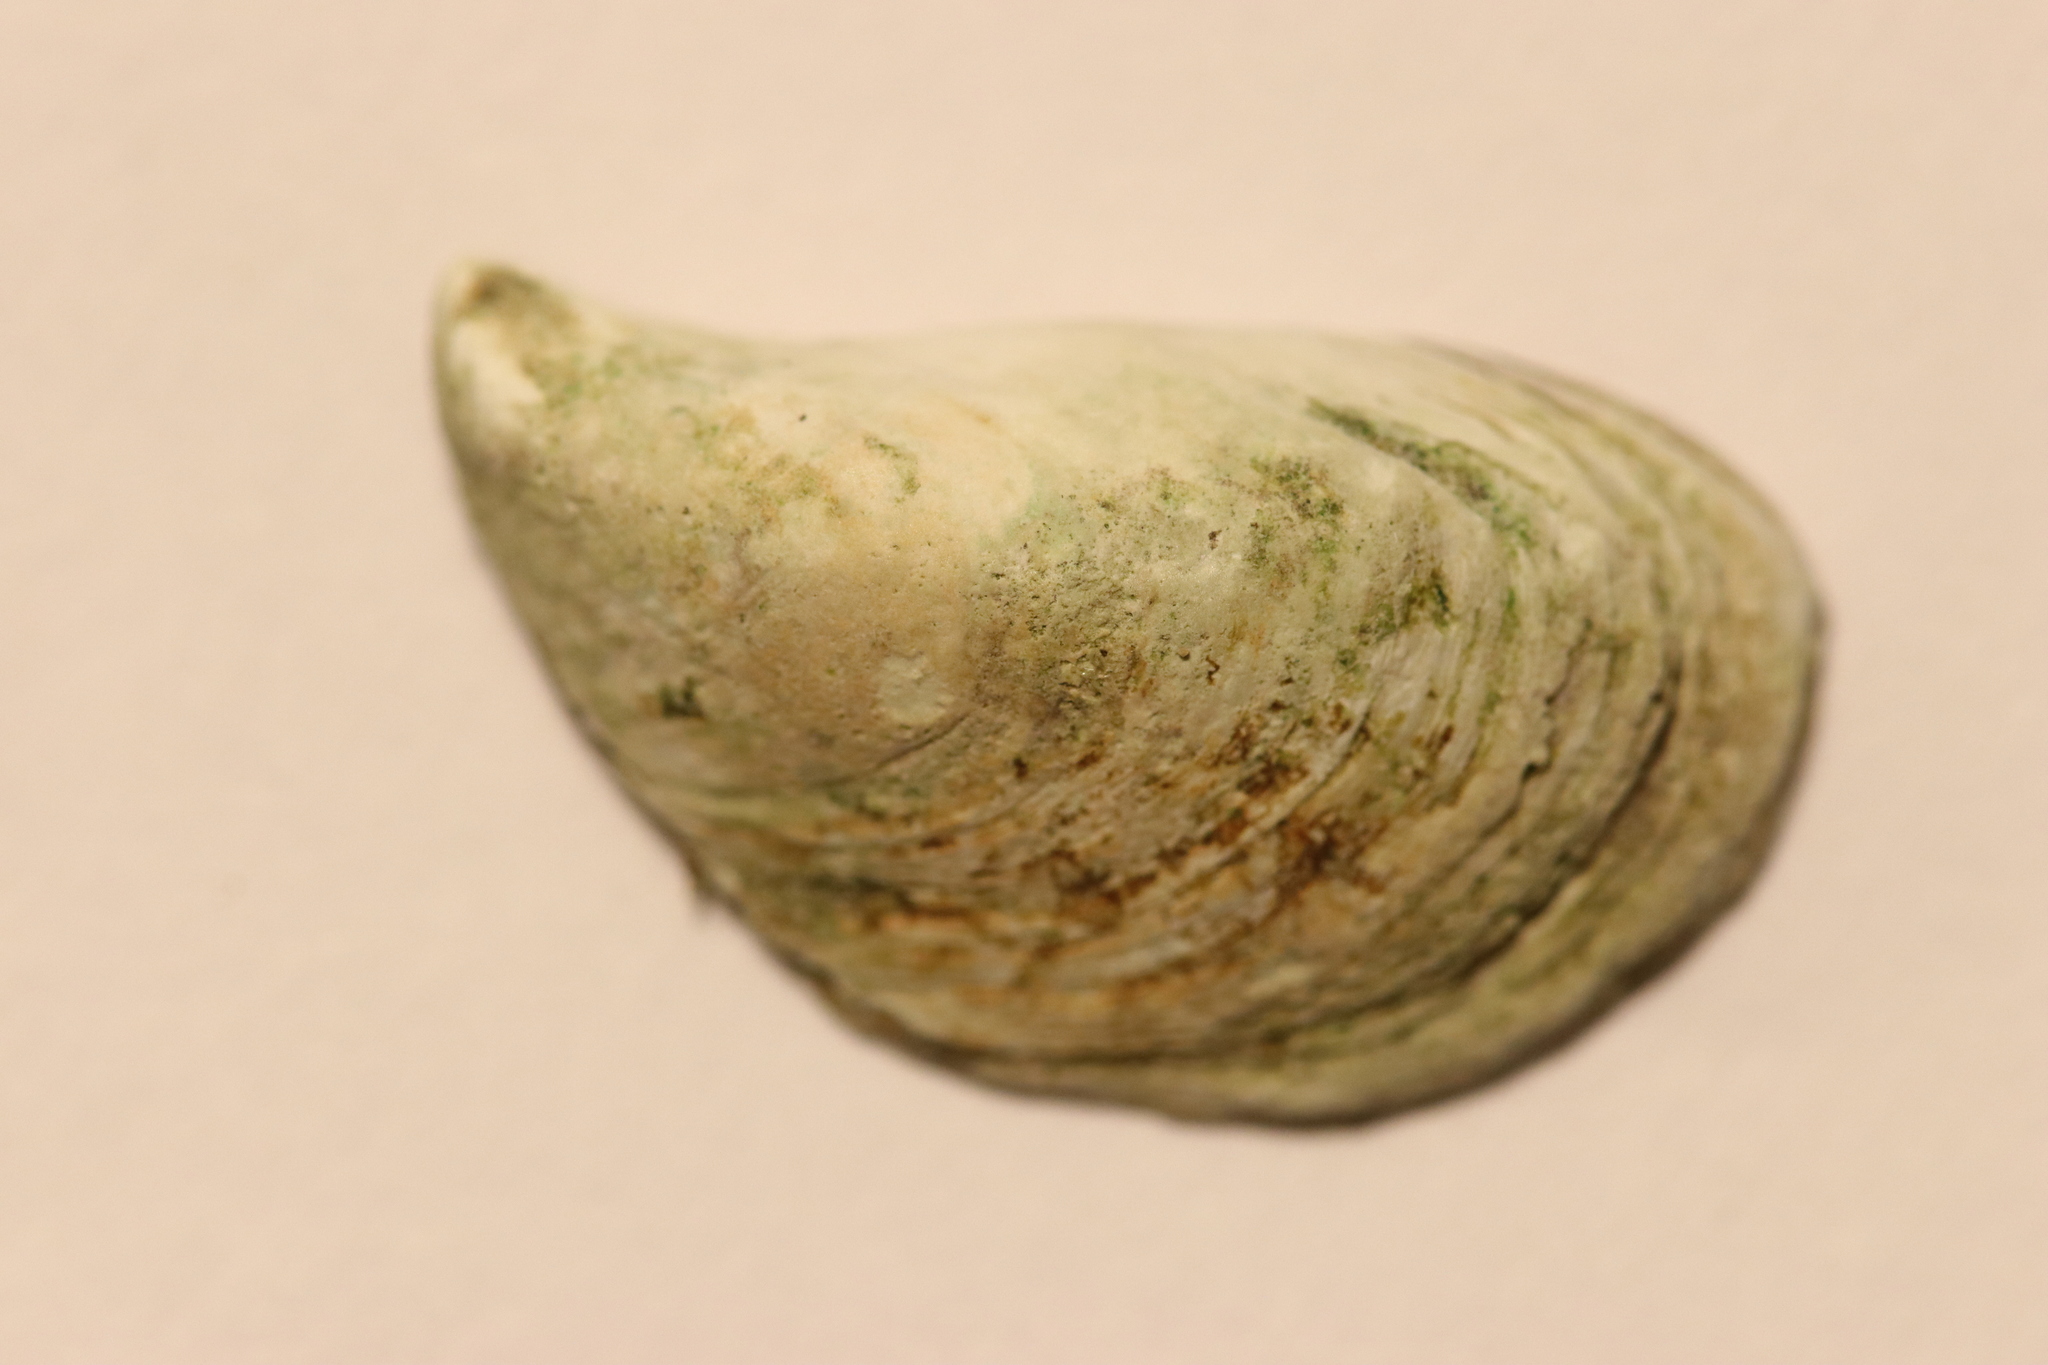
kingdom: Animalia
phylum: Mollusca
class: Bivalvia
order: Myida
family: Dreissenidae
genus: Dreissena
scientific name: Dreissena bugensis
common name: Quagga mussel
